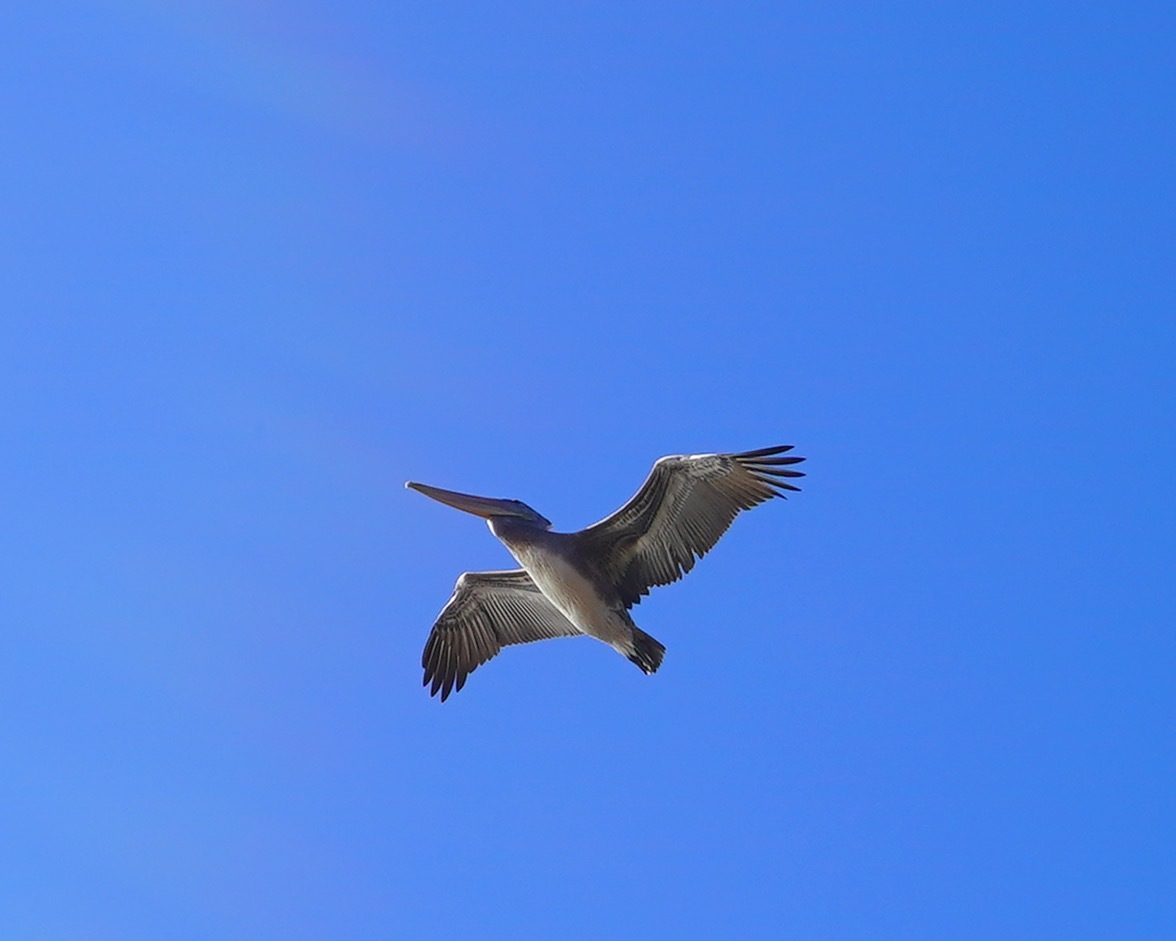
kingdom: Animalia
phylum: Chordata
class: Aves
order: Pelecaniformes
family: Pelecanidae
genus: Pelecanus
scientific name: Pelecanus occidentalis
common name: Brown pelican
